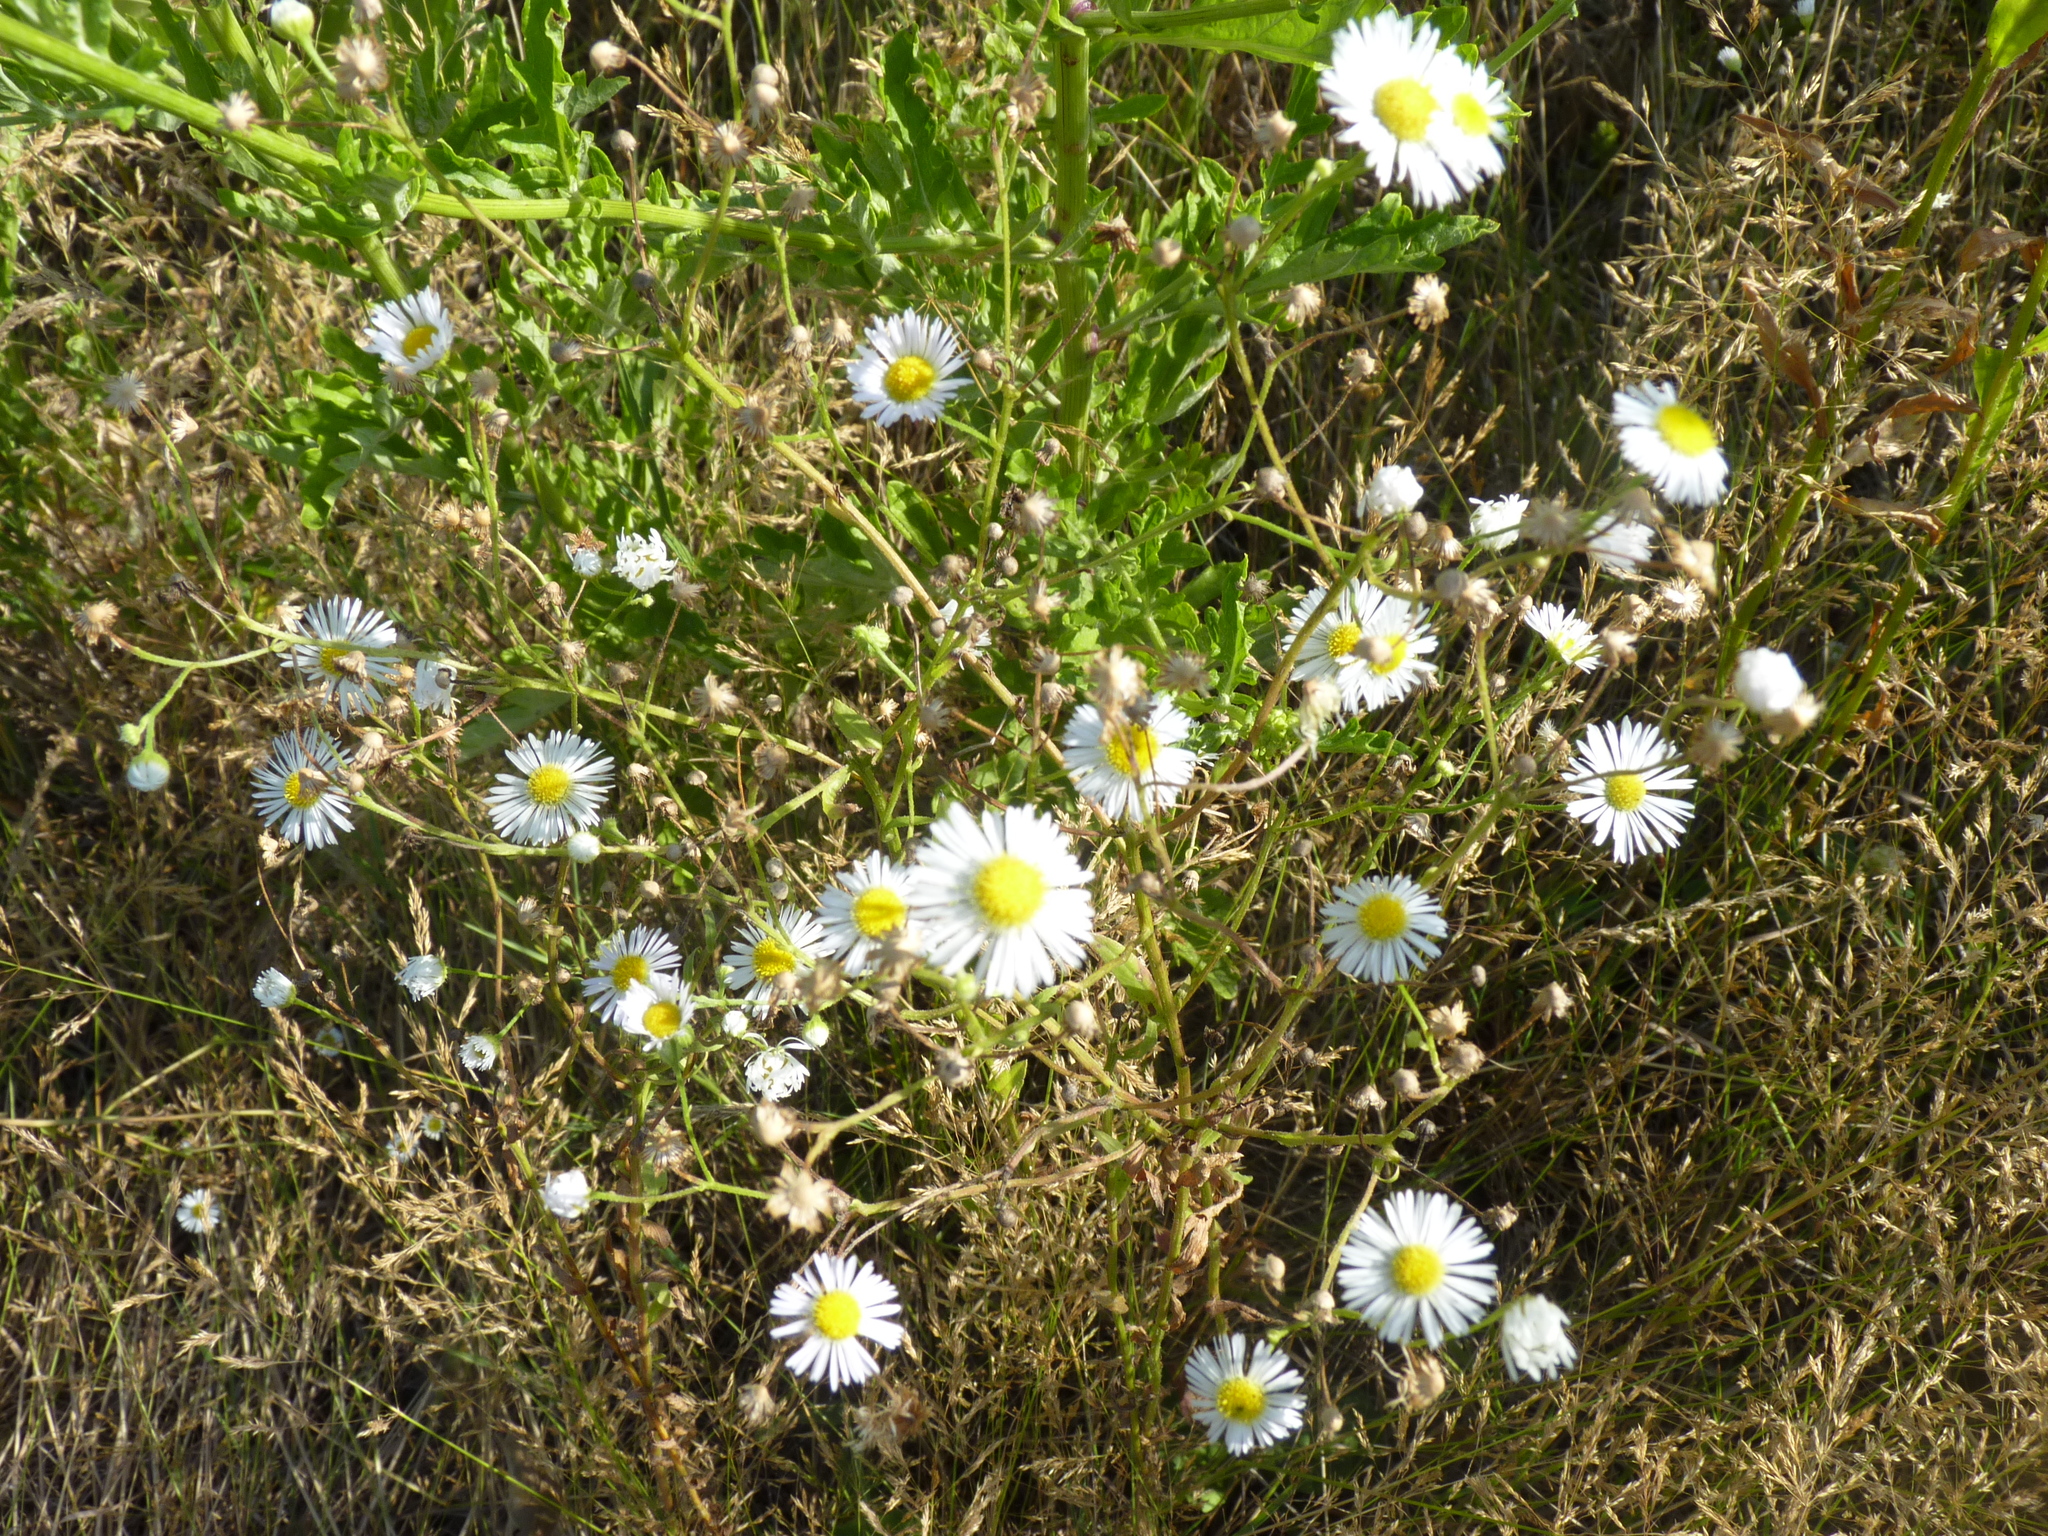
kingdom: Plantae
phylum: Tracheophyta
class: Magnoliopsida
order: Asterales
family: Asteraceae
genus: Erigeron
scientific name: Erigeron annuus
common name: Tall fleabane
